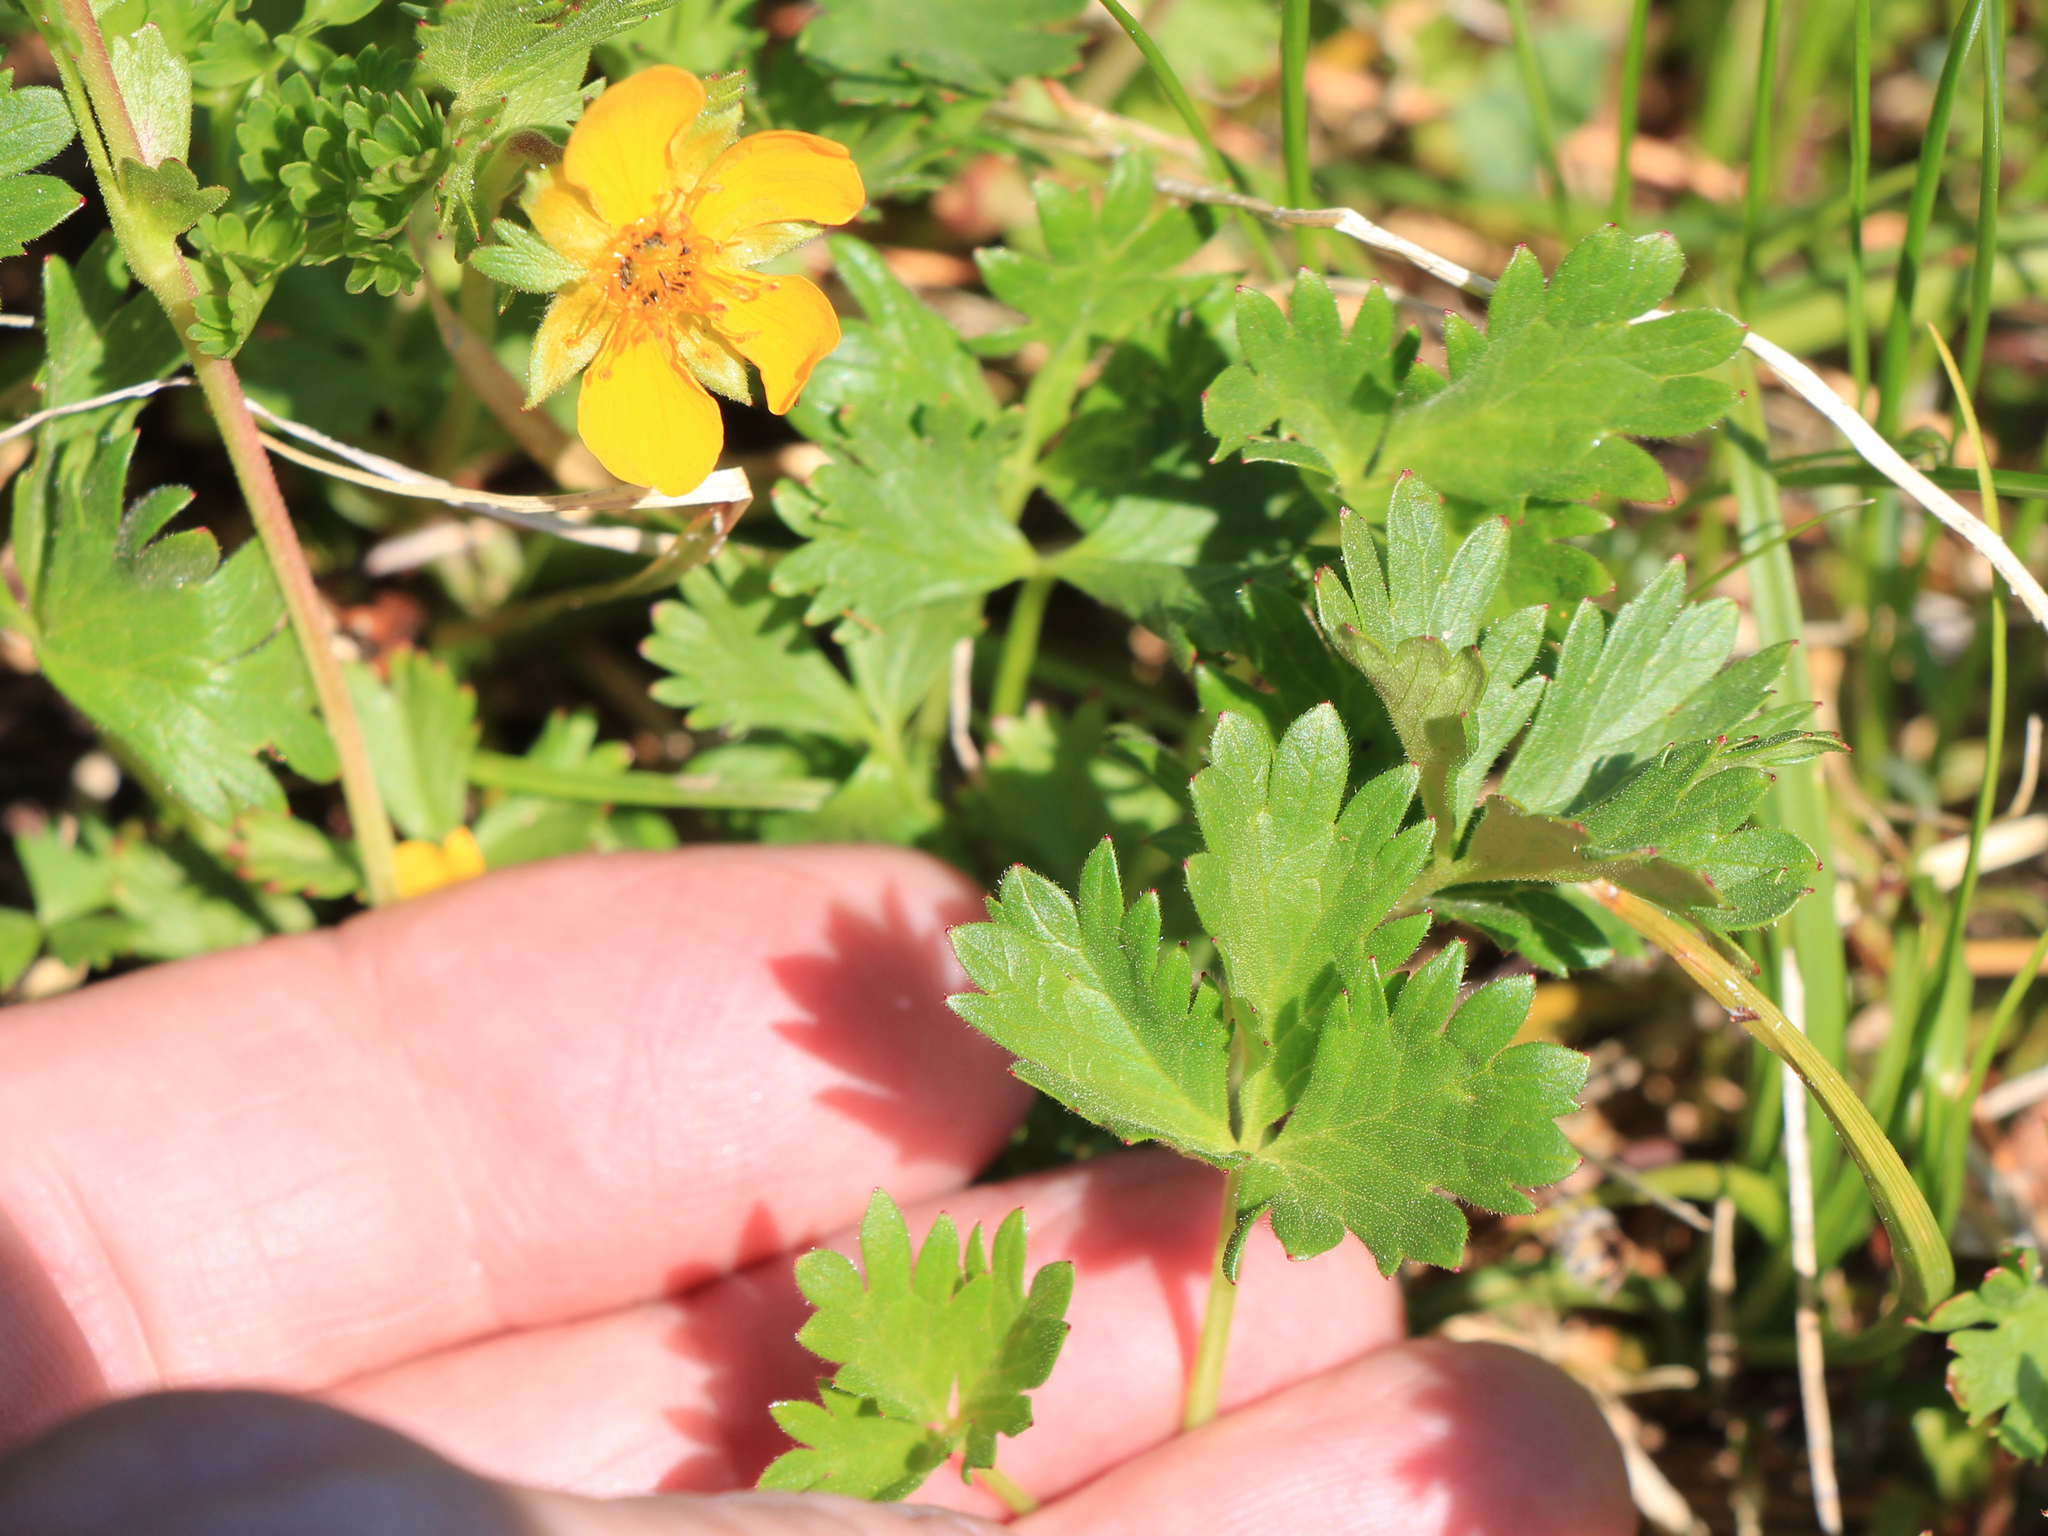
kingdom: Plantae
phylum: Tracheophyta
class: Magnoliopsida
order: Rosales
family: Rosaceae
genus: Potentilla
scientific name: Potentilla flabellifolia
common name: Mount rainier cinquefoil
